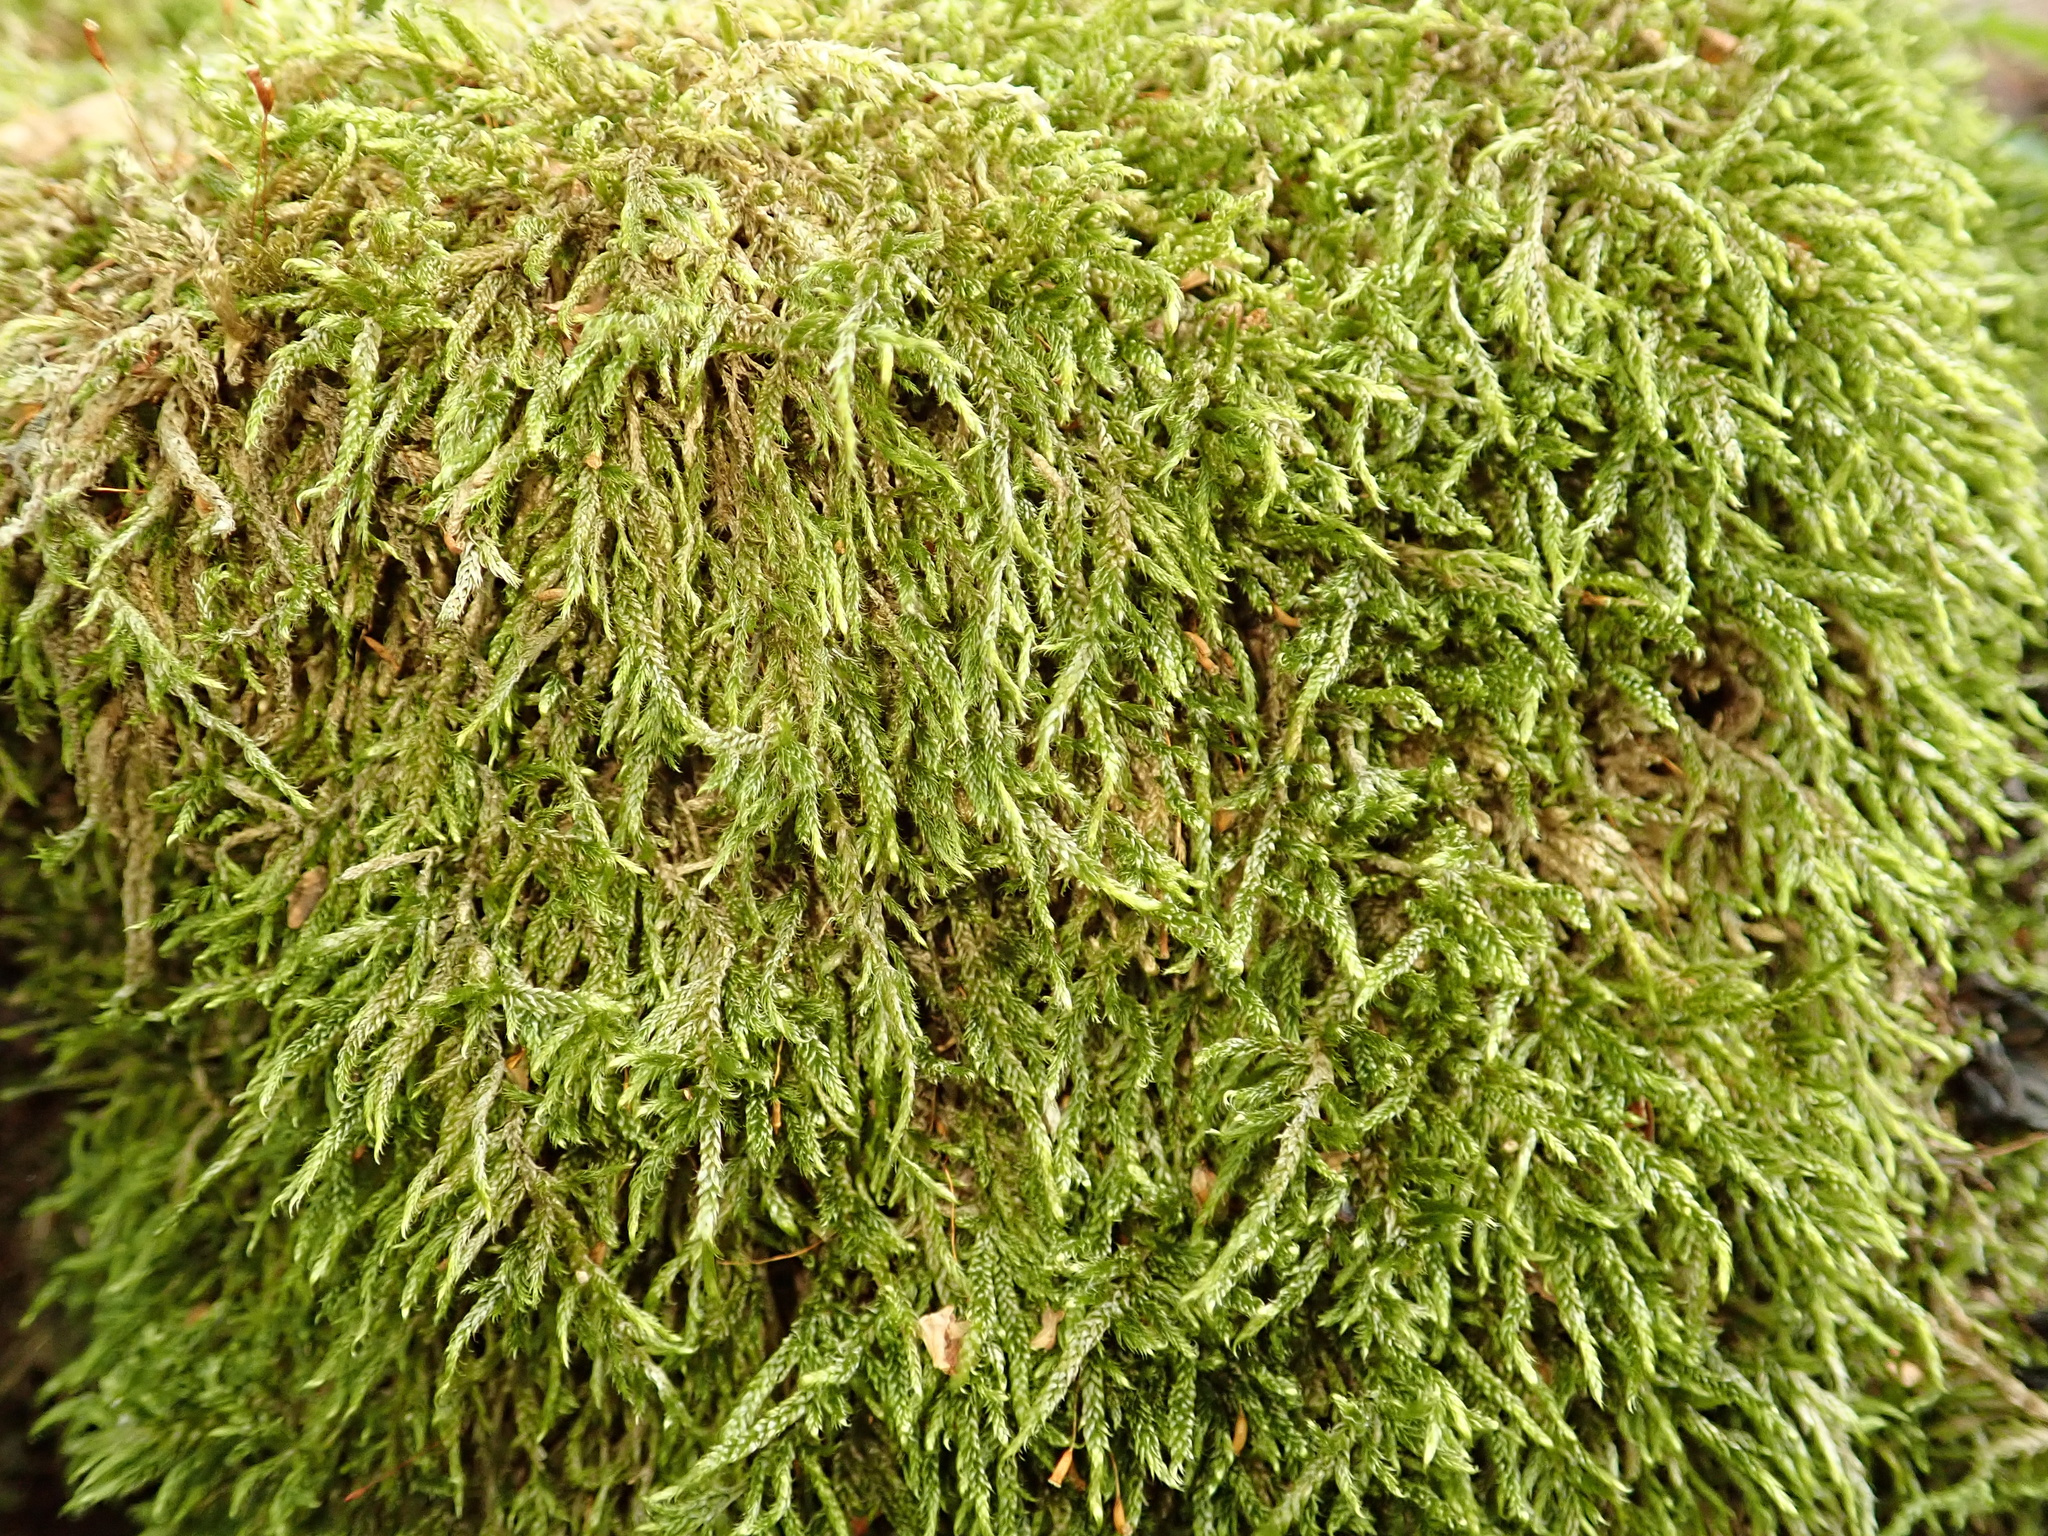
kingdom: Plantae
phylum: Bryophyta
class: Bryopsida
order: Hypnales
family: Hypnaceae
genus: Hypnum
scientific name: Hypnum cupressiforme
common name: Cypress-leaved plait-moss
